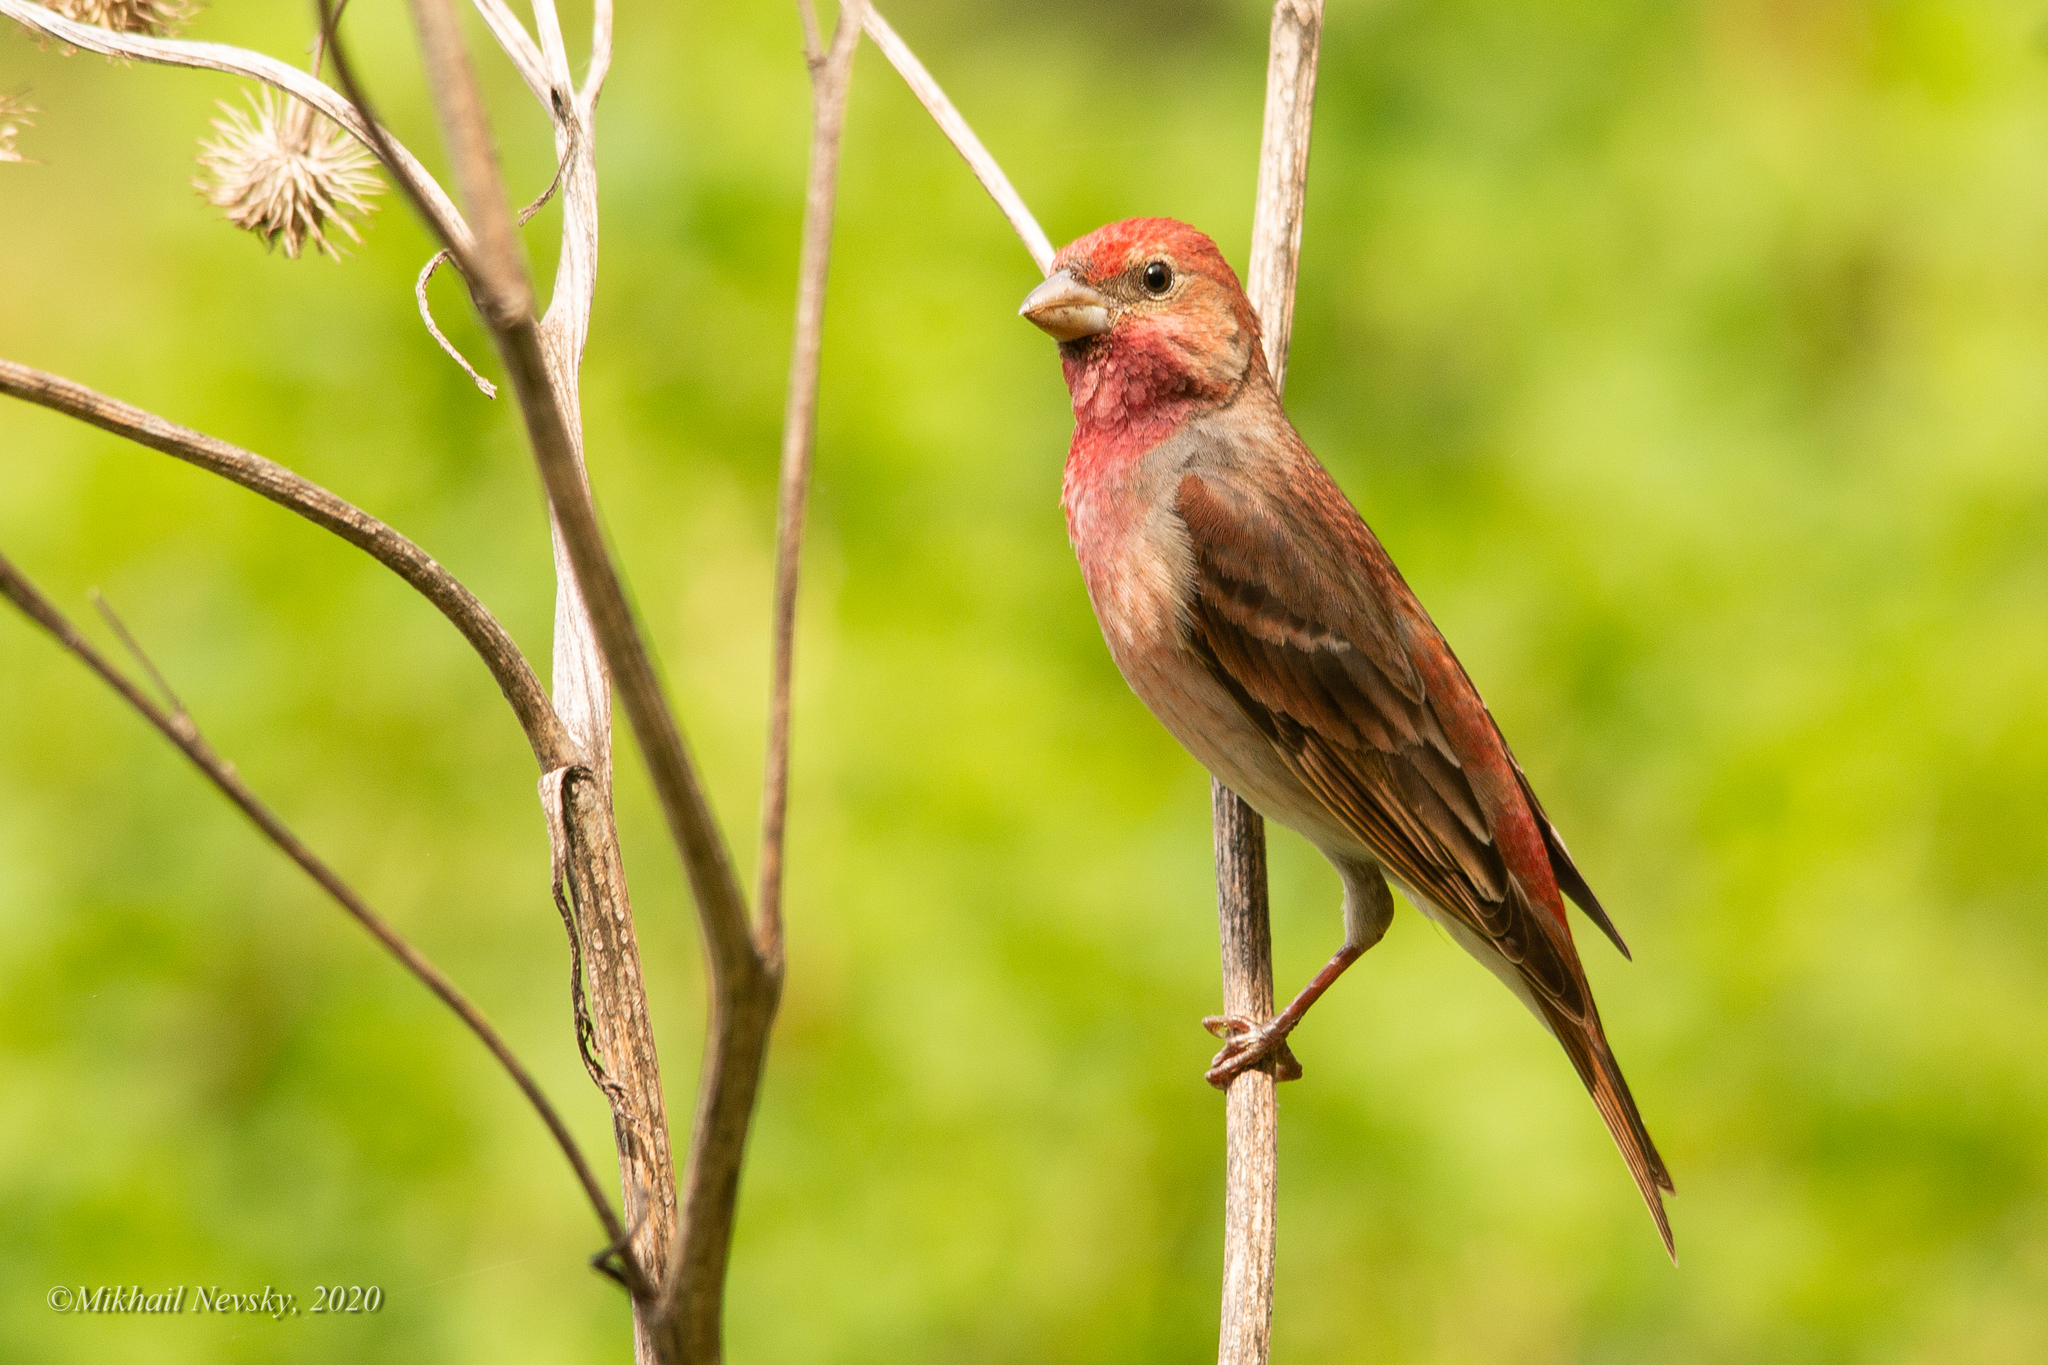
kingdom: Animalia
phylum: Chordata
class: Aves
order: Passeriformes
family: Fringillidae
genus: Carpodacus
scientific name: Carpodacus erythrinus
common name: Common rosefinch
